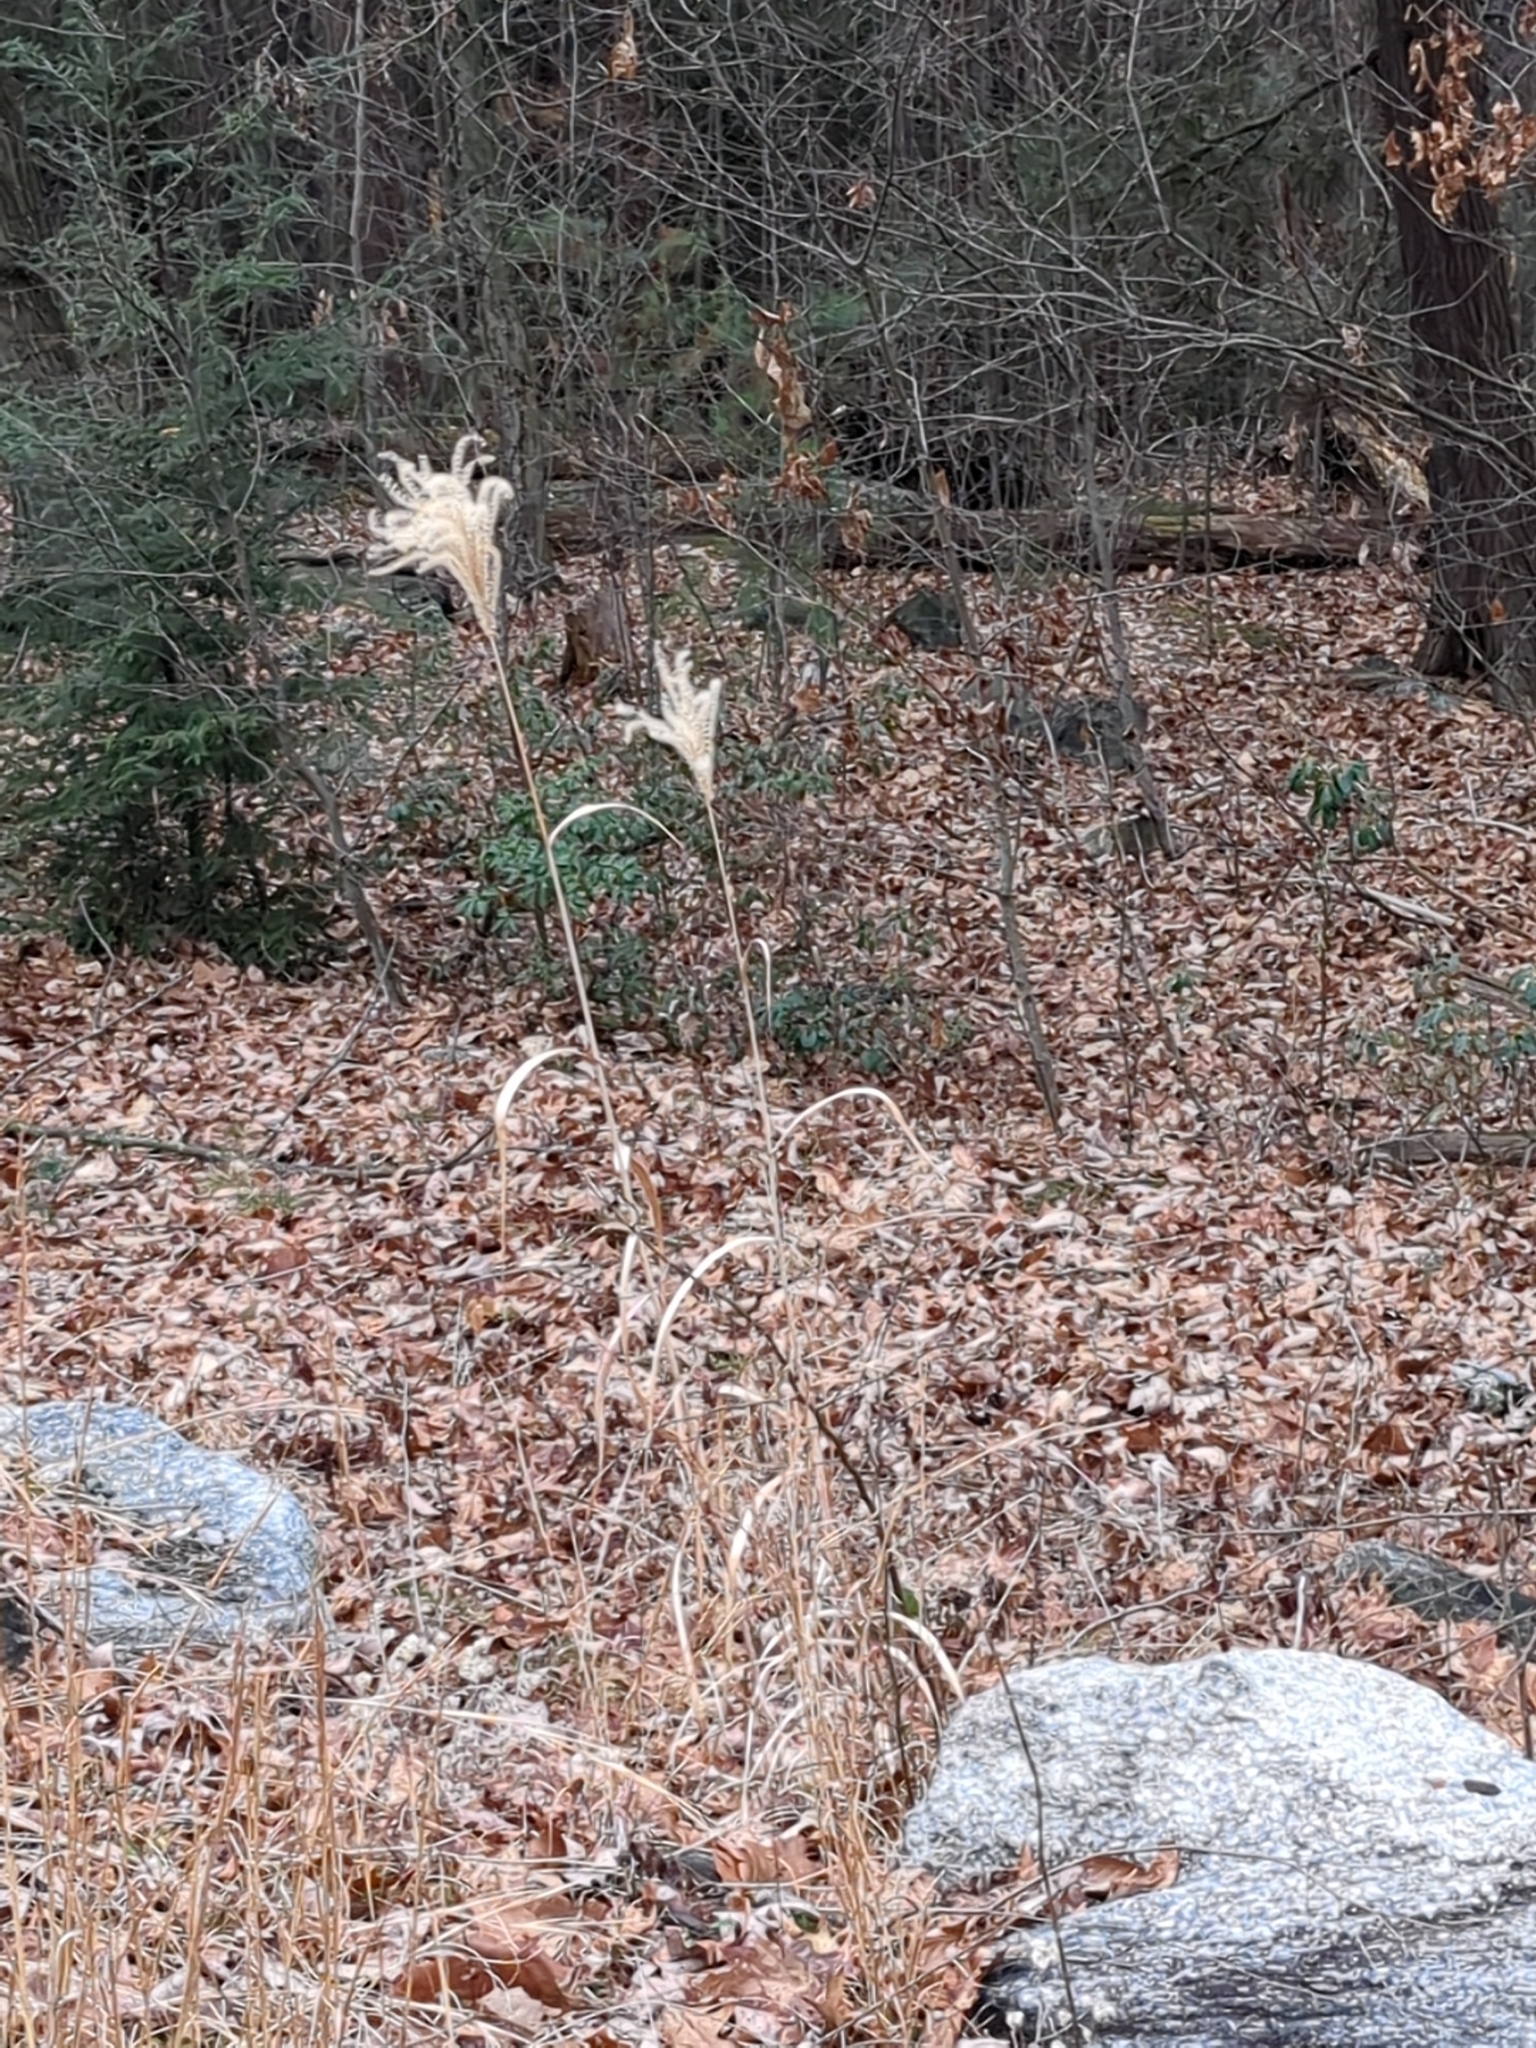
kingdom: Plantae
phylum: Tracheophyta
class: Liliopsida
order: Poales
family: Poaceae
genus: Miscanthus
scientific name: Miscanthus sinensis
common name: Chinese silvergrass
